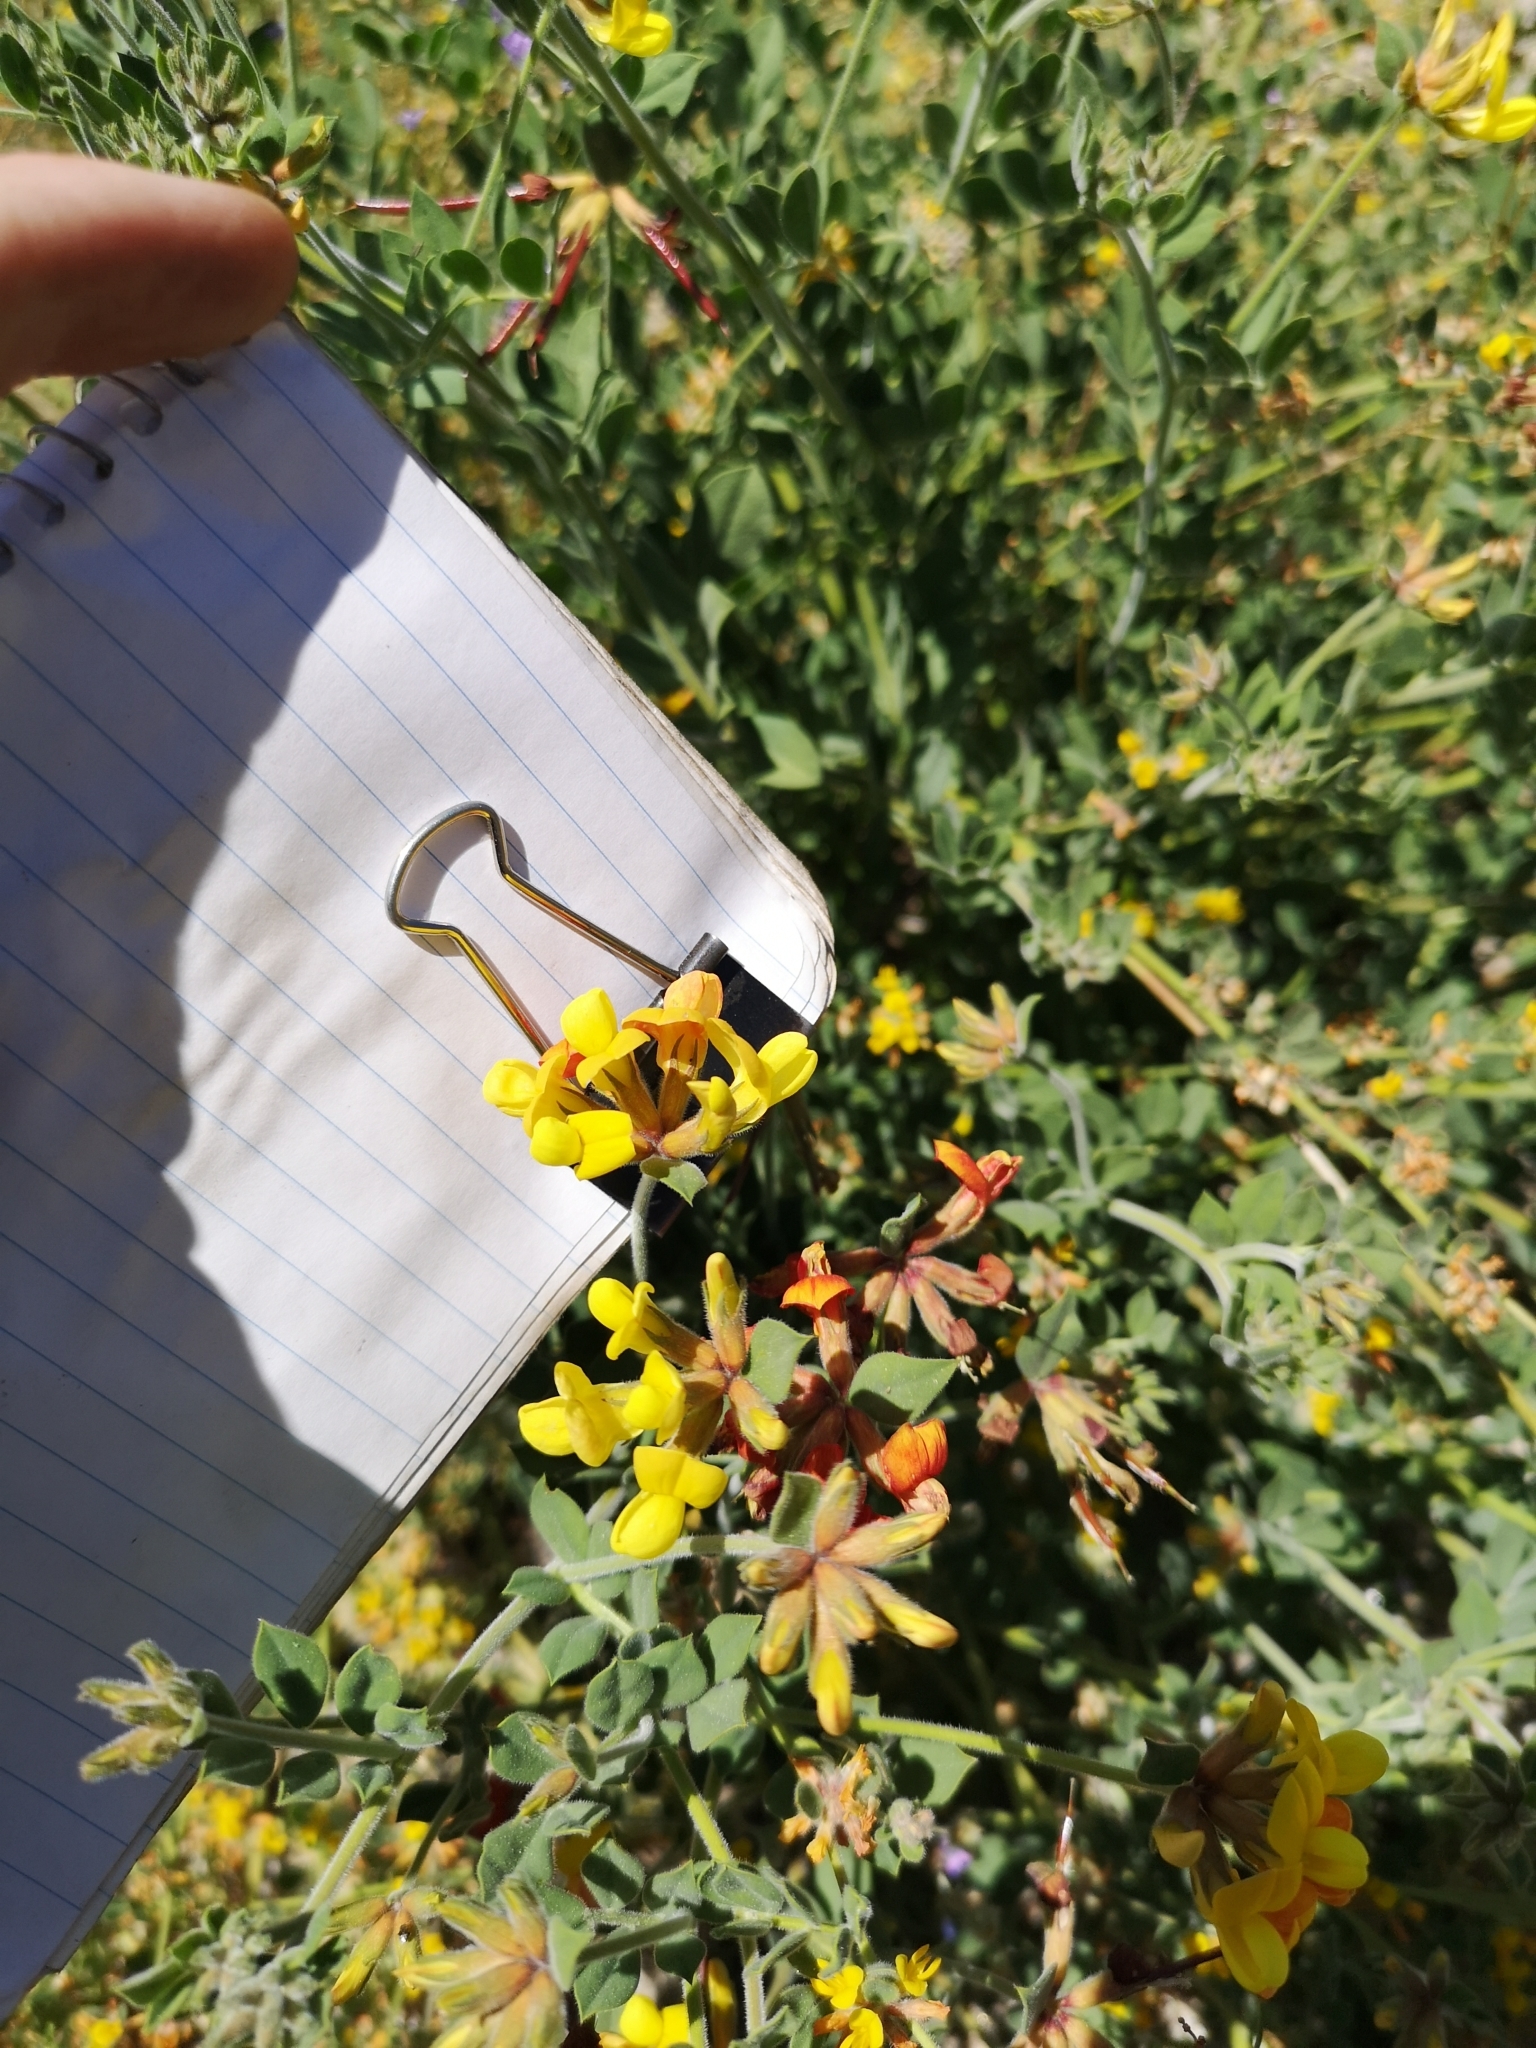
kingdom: Plantae
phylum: Tracheophyta
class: Magnoliopsida
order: Fabales
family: Fabaceae
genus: Acmispon
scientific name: Acmispon grandiflorus
